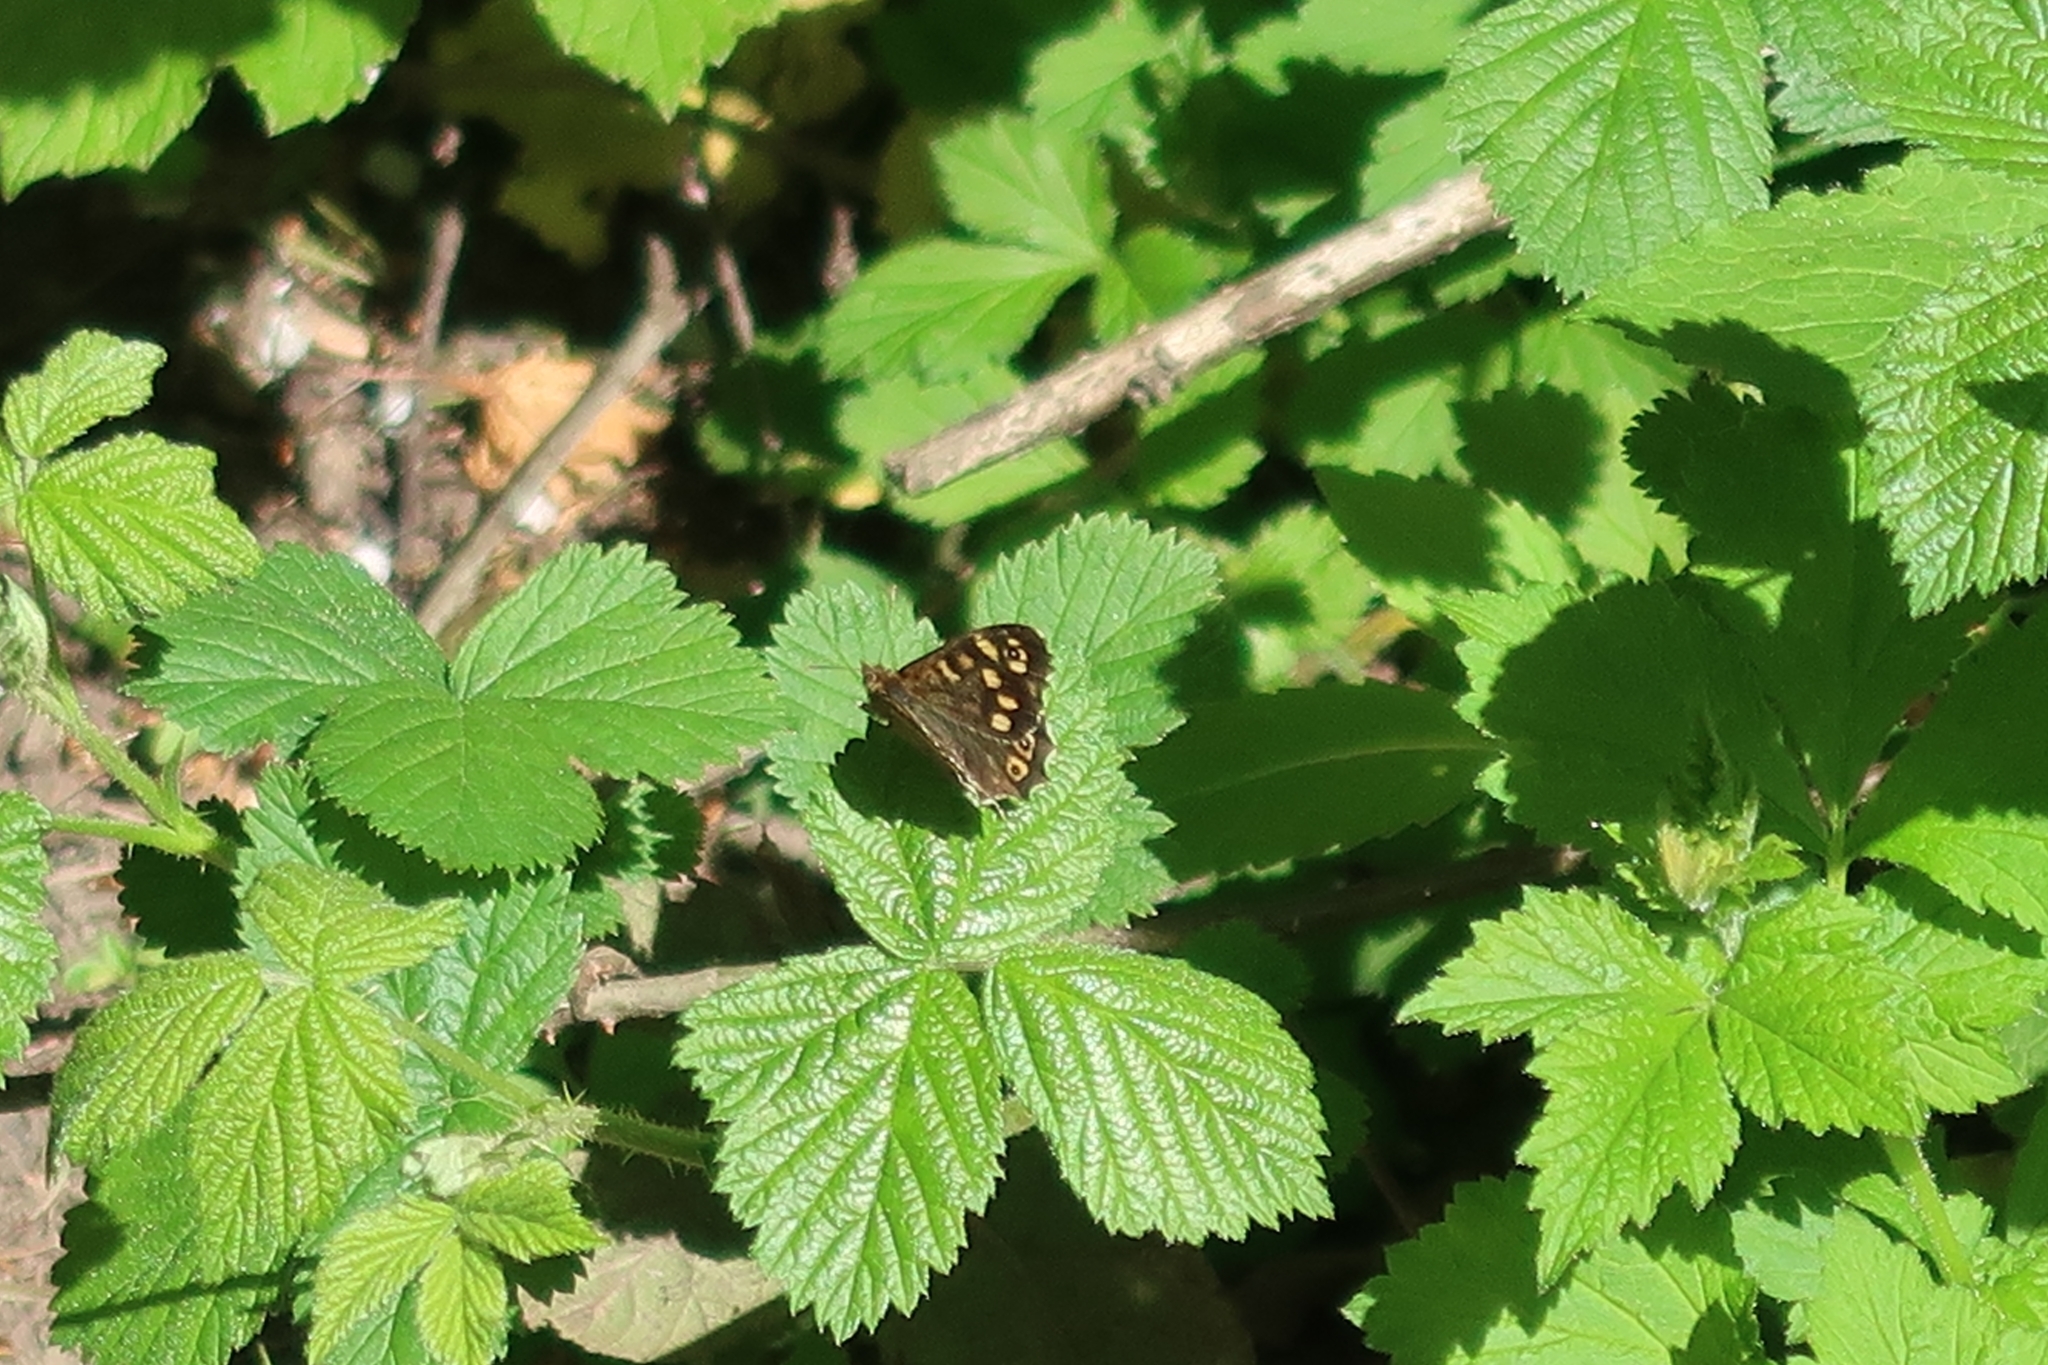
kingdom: Animalia
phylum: Arthropoda
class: Insecta
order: Lepidoptera
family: Nymphalidae
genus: Pararge
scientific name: Pararge aegeria
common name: Speckled wood
